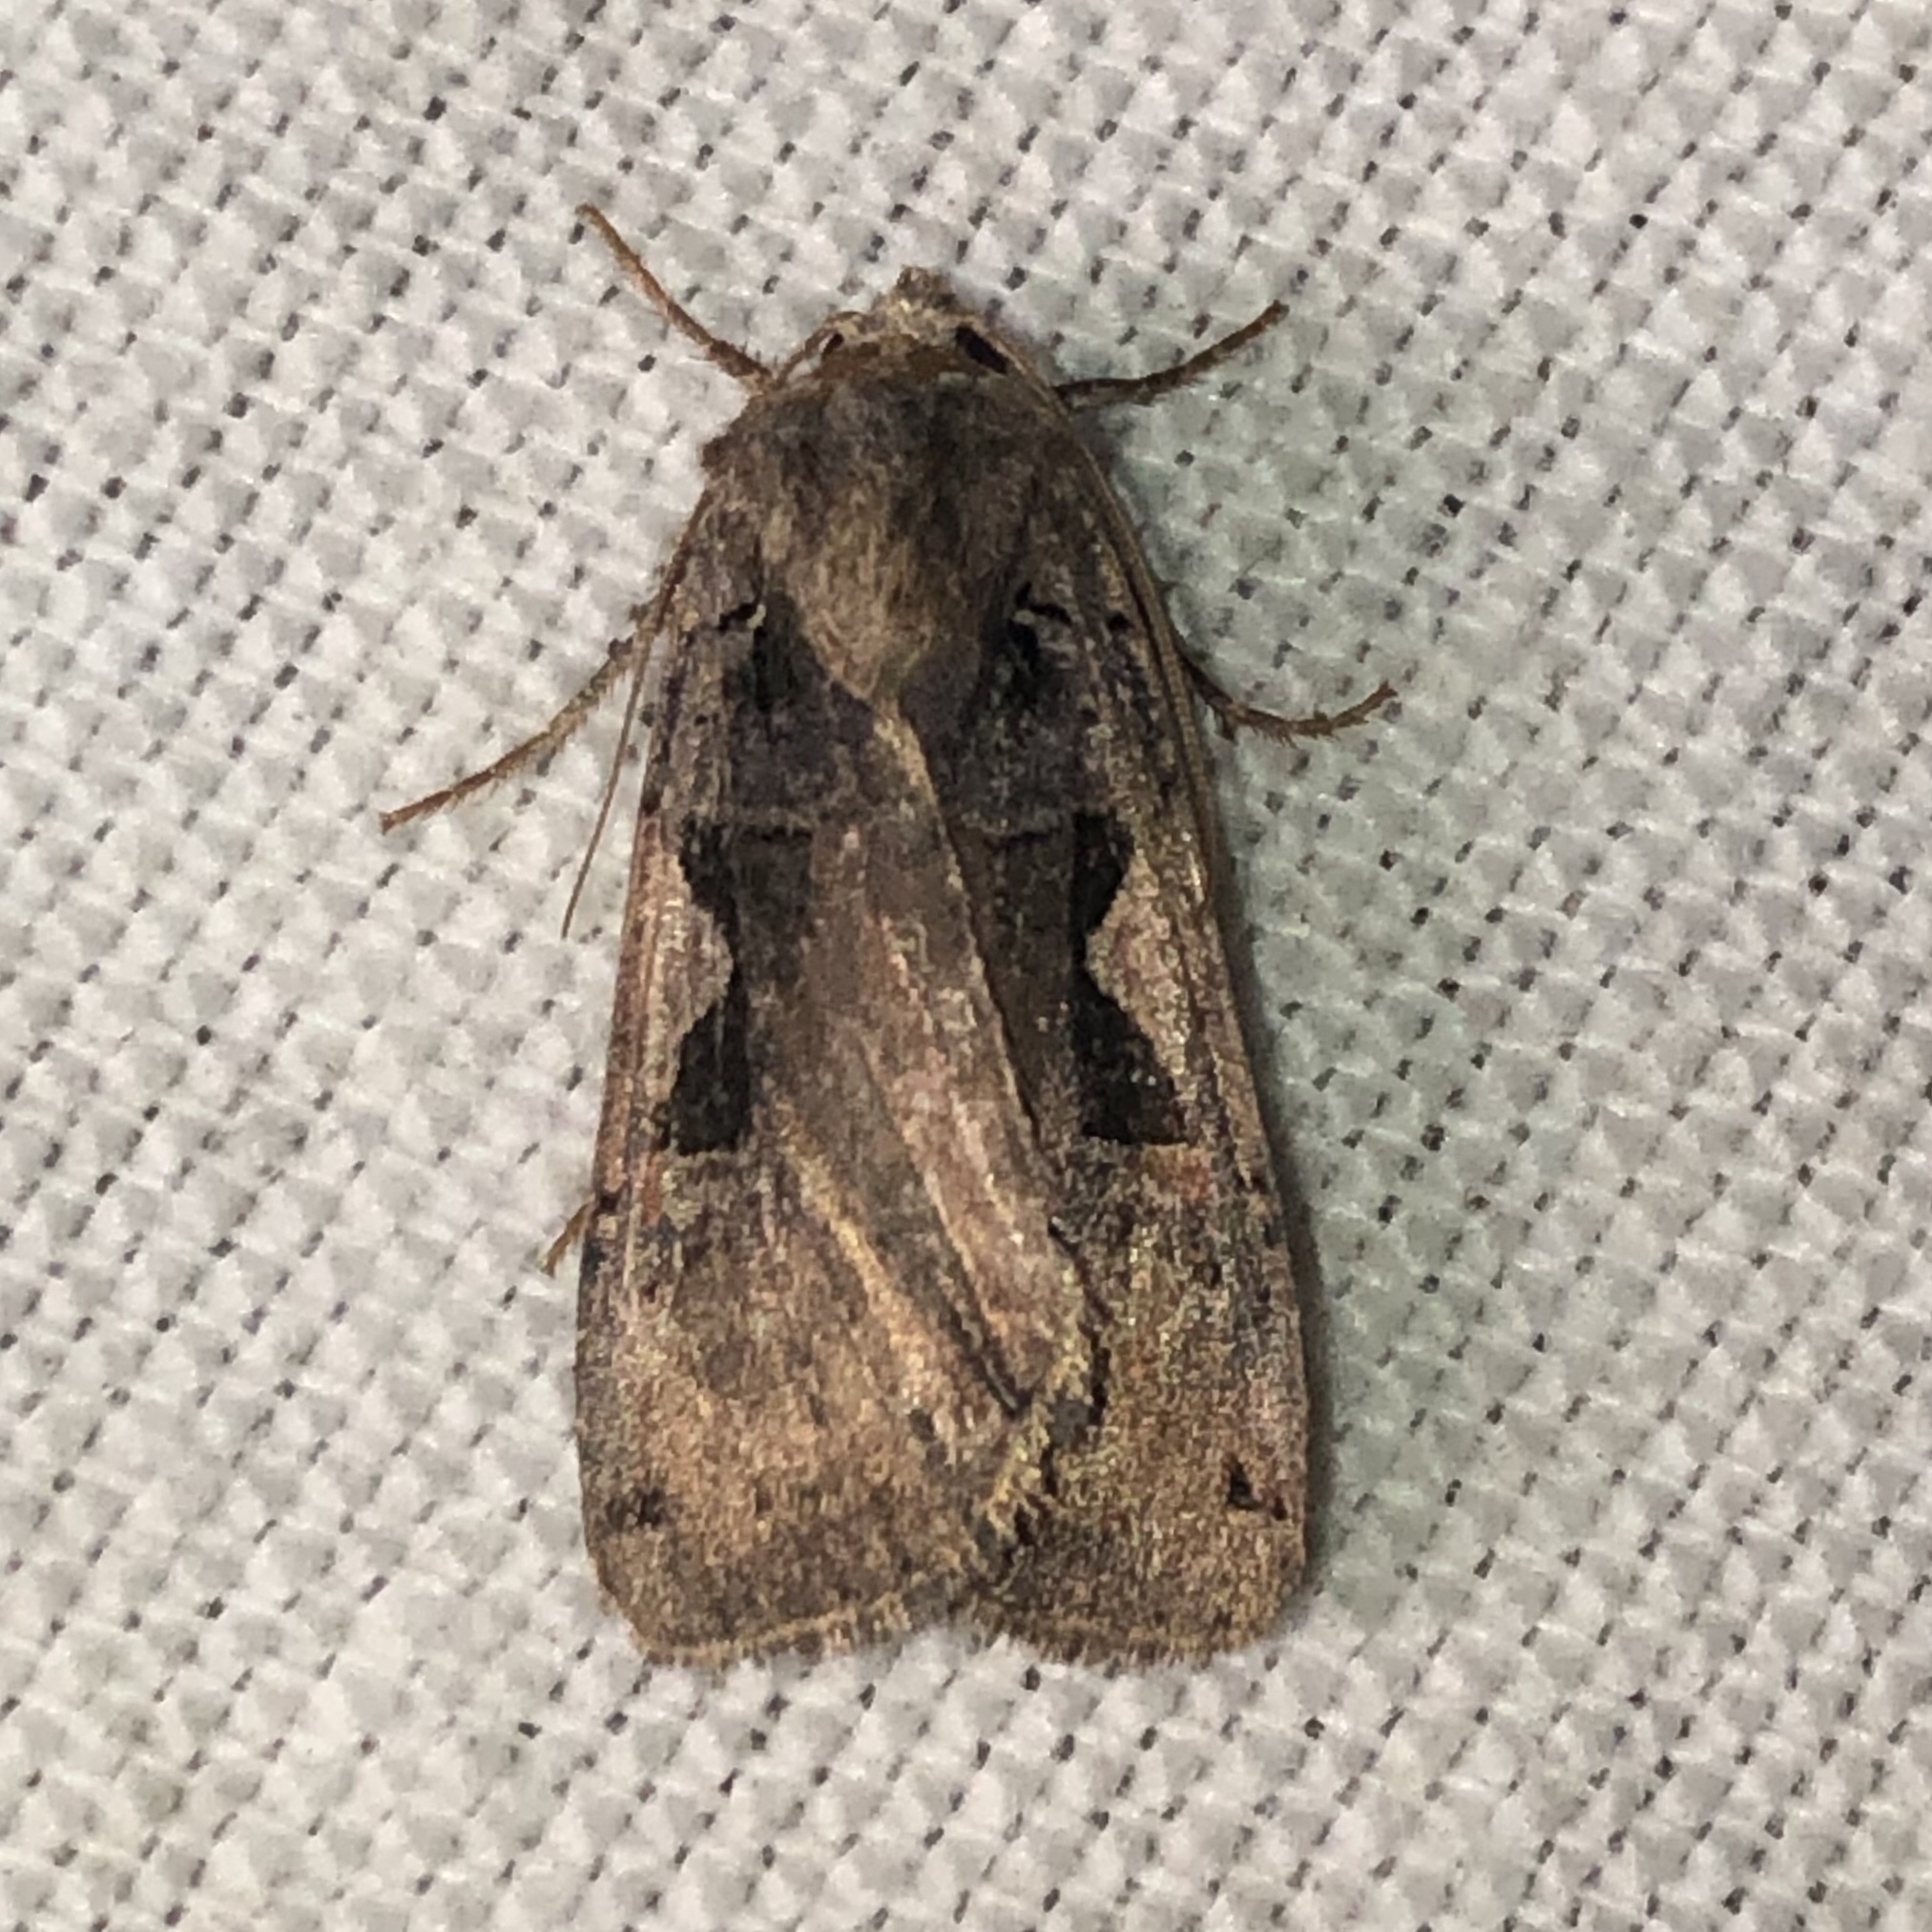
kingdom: Animalia
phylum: Arthropoda
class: Insecta
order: Lepidoptera
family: Noctuidae
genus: Xestia
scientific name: Xestia
